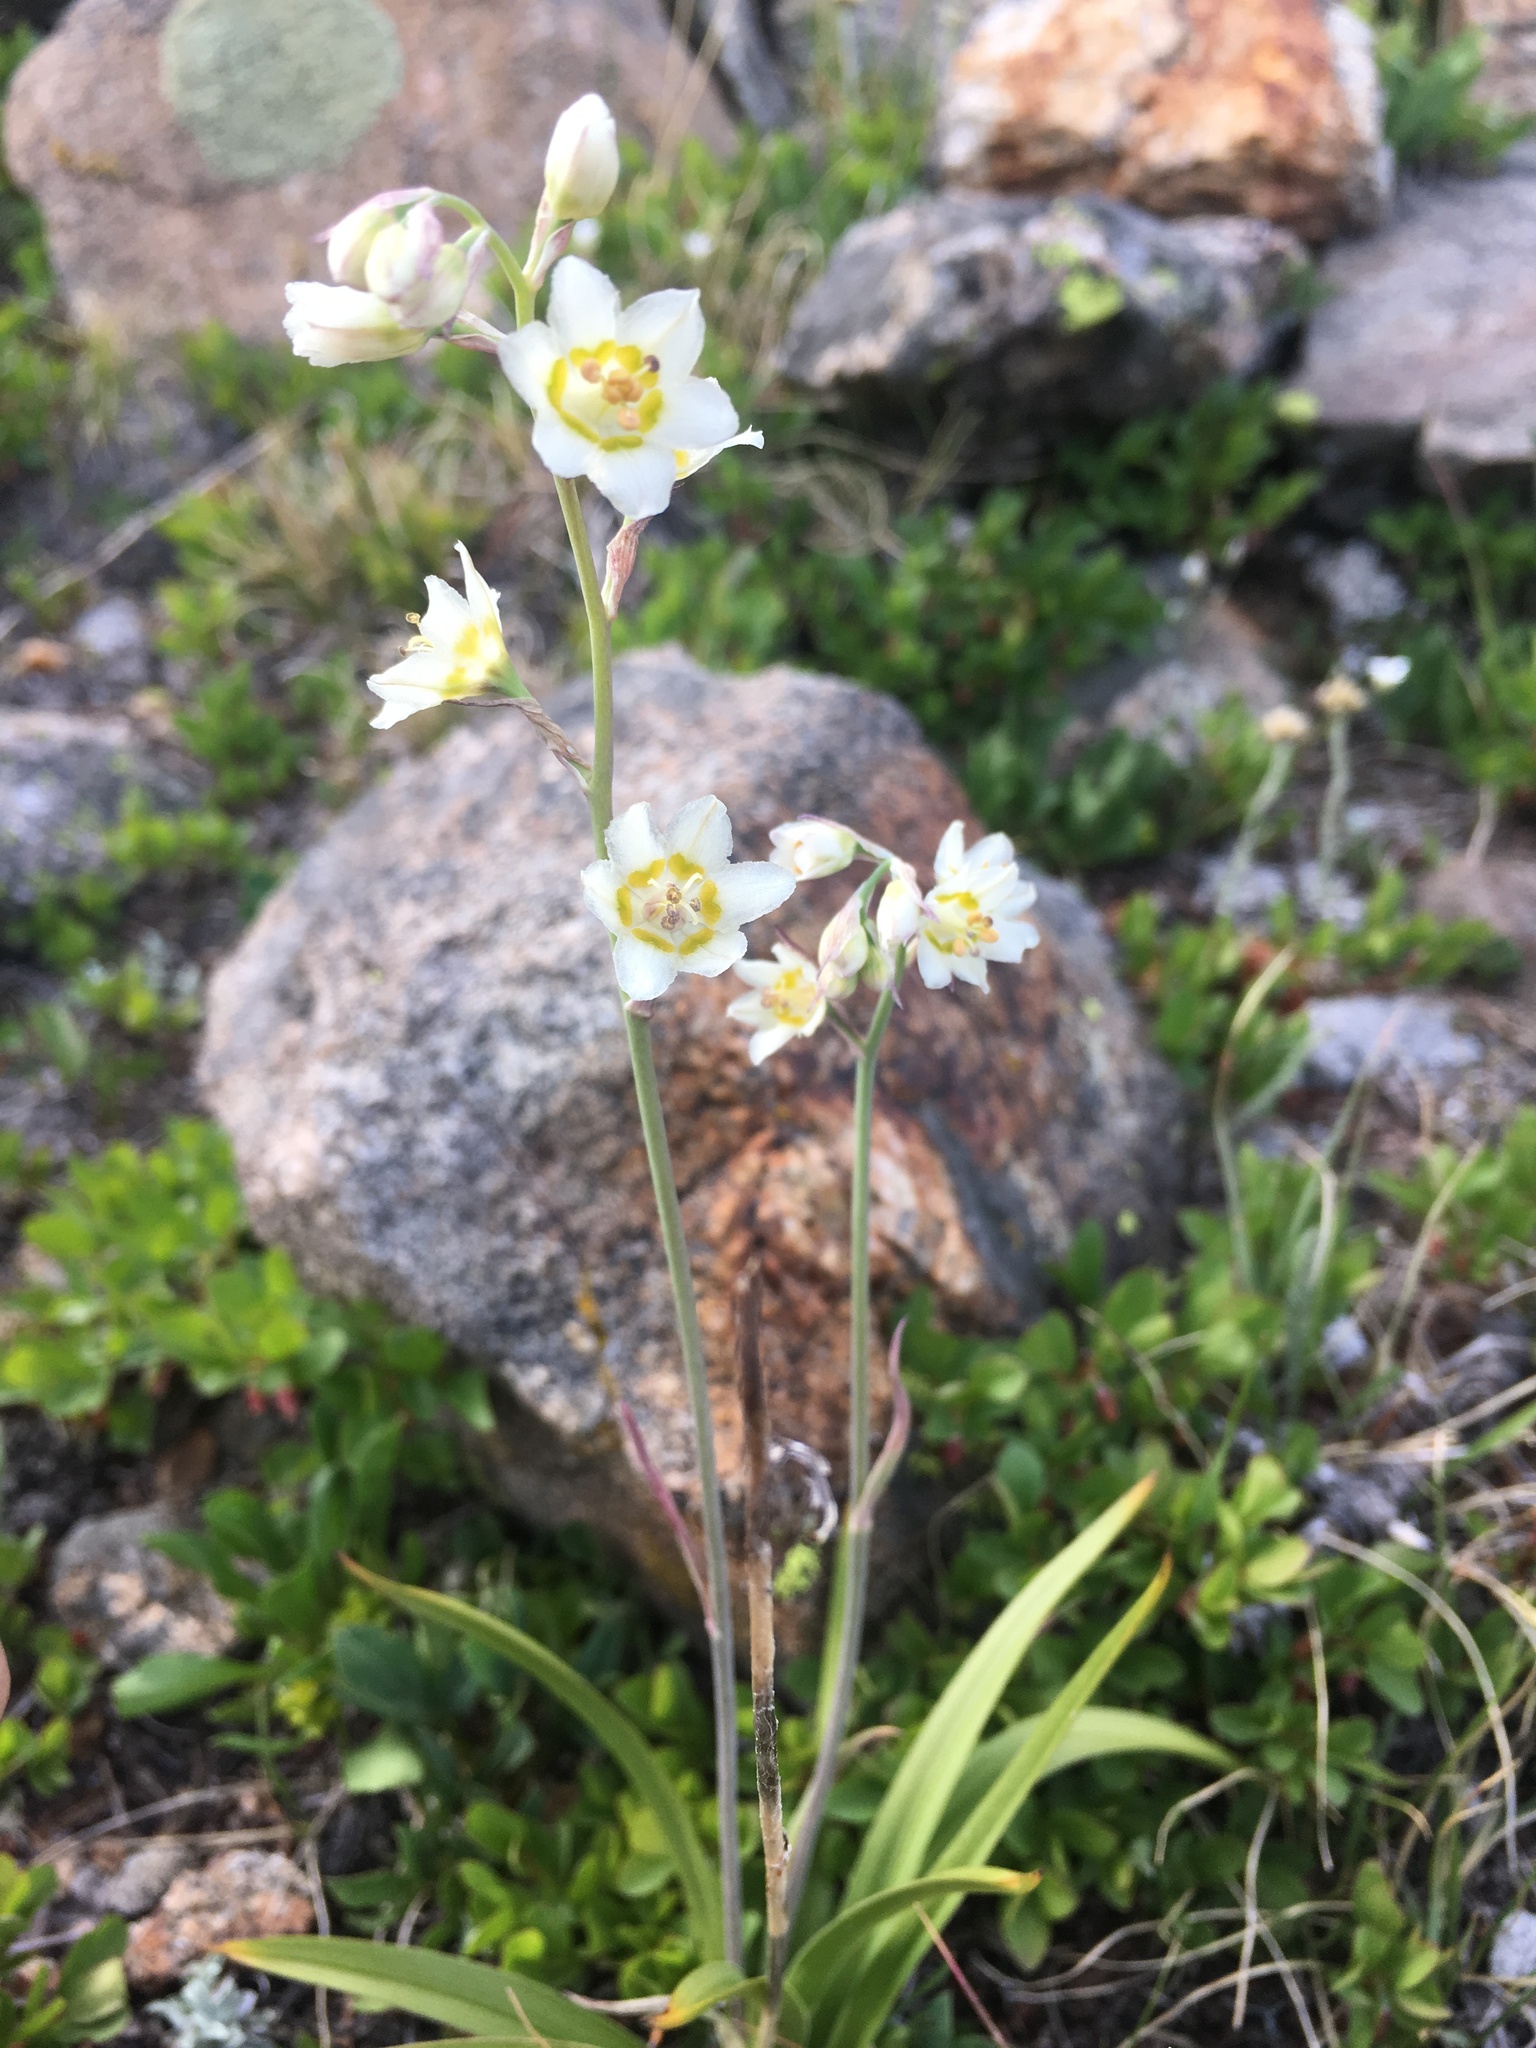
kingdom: Plantae
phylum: Tracheophyta
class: Liliopsida
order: Liliales
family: Melanthiaceae
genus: Anticlea
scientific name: Anticlea elegans
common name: Mountain death camas
